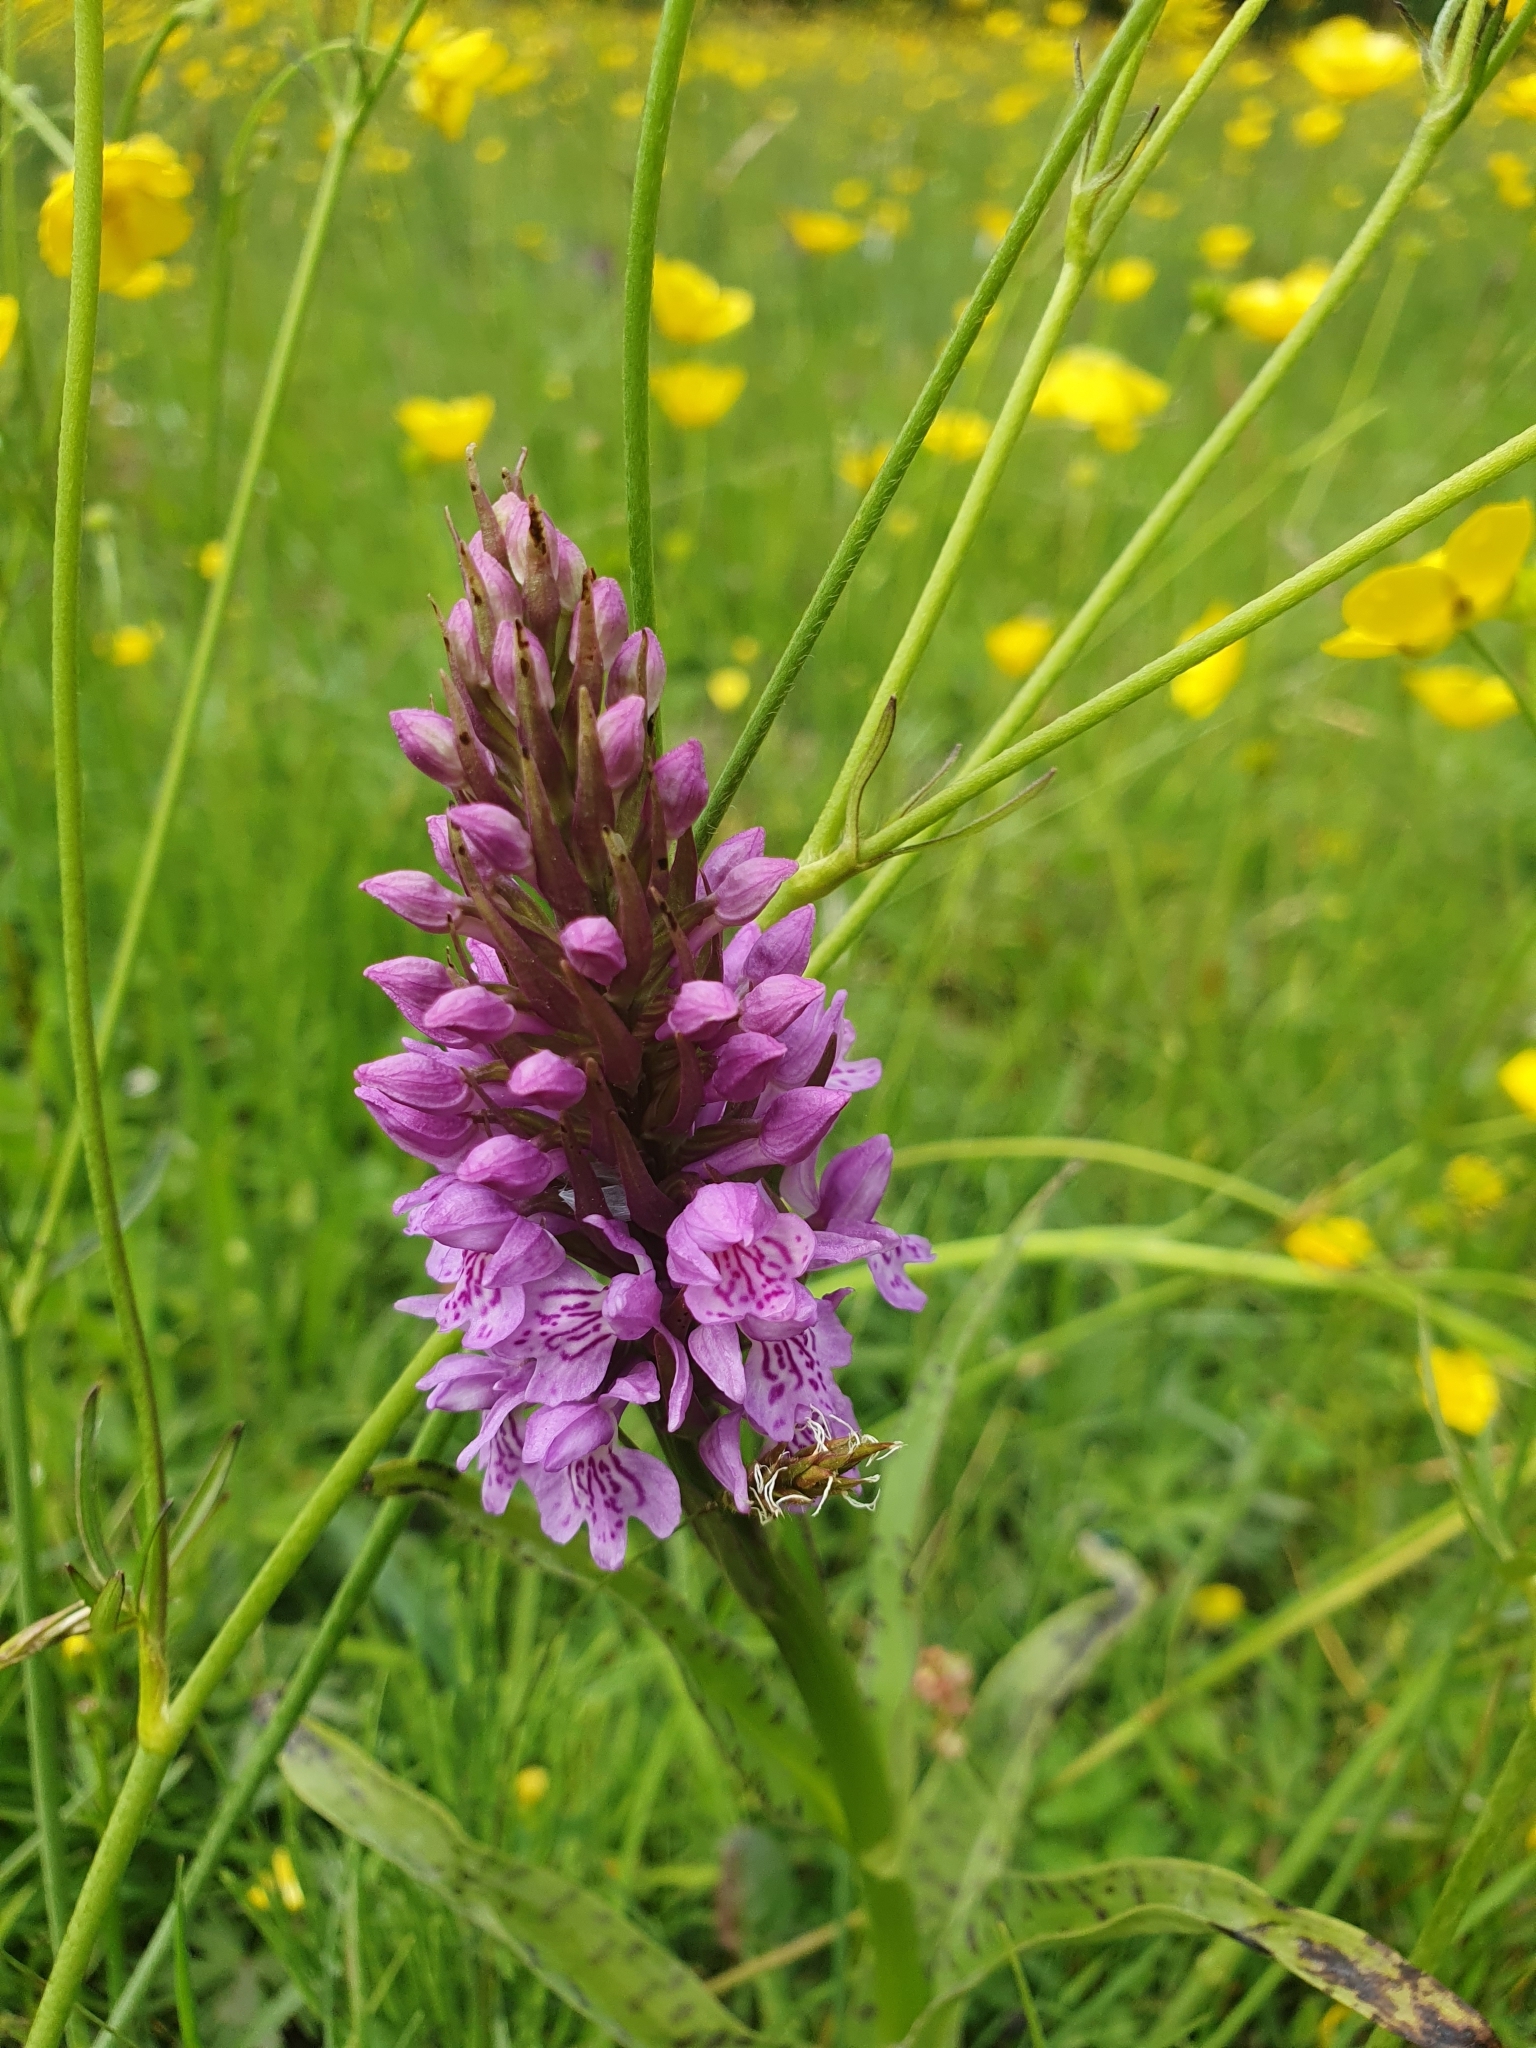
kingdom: Plantae
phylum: Tracheophyta
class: Liliopsida
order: Asparagales
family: Orchidaceae
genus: Anacamptis
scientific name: Anacamptis pyramidalis
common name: Pyramidal orchid
